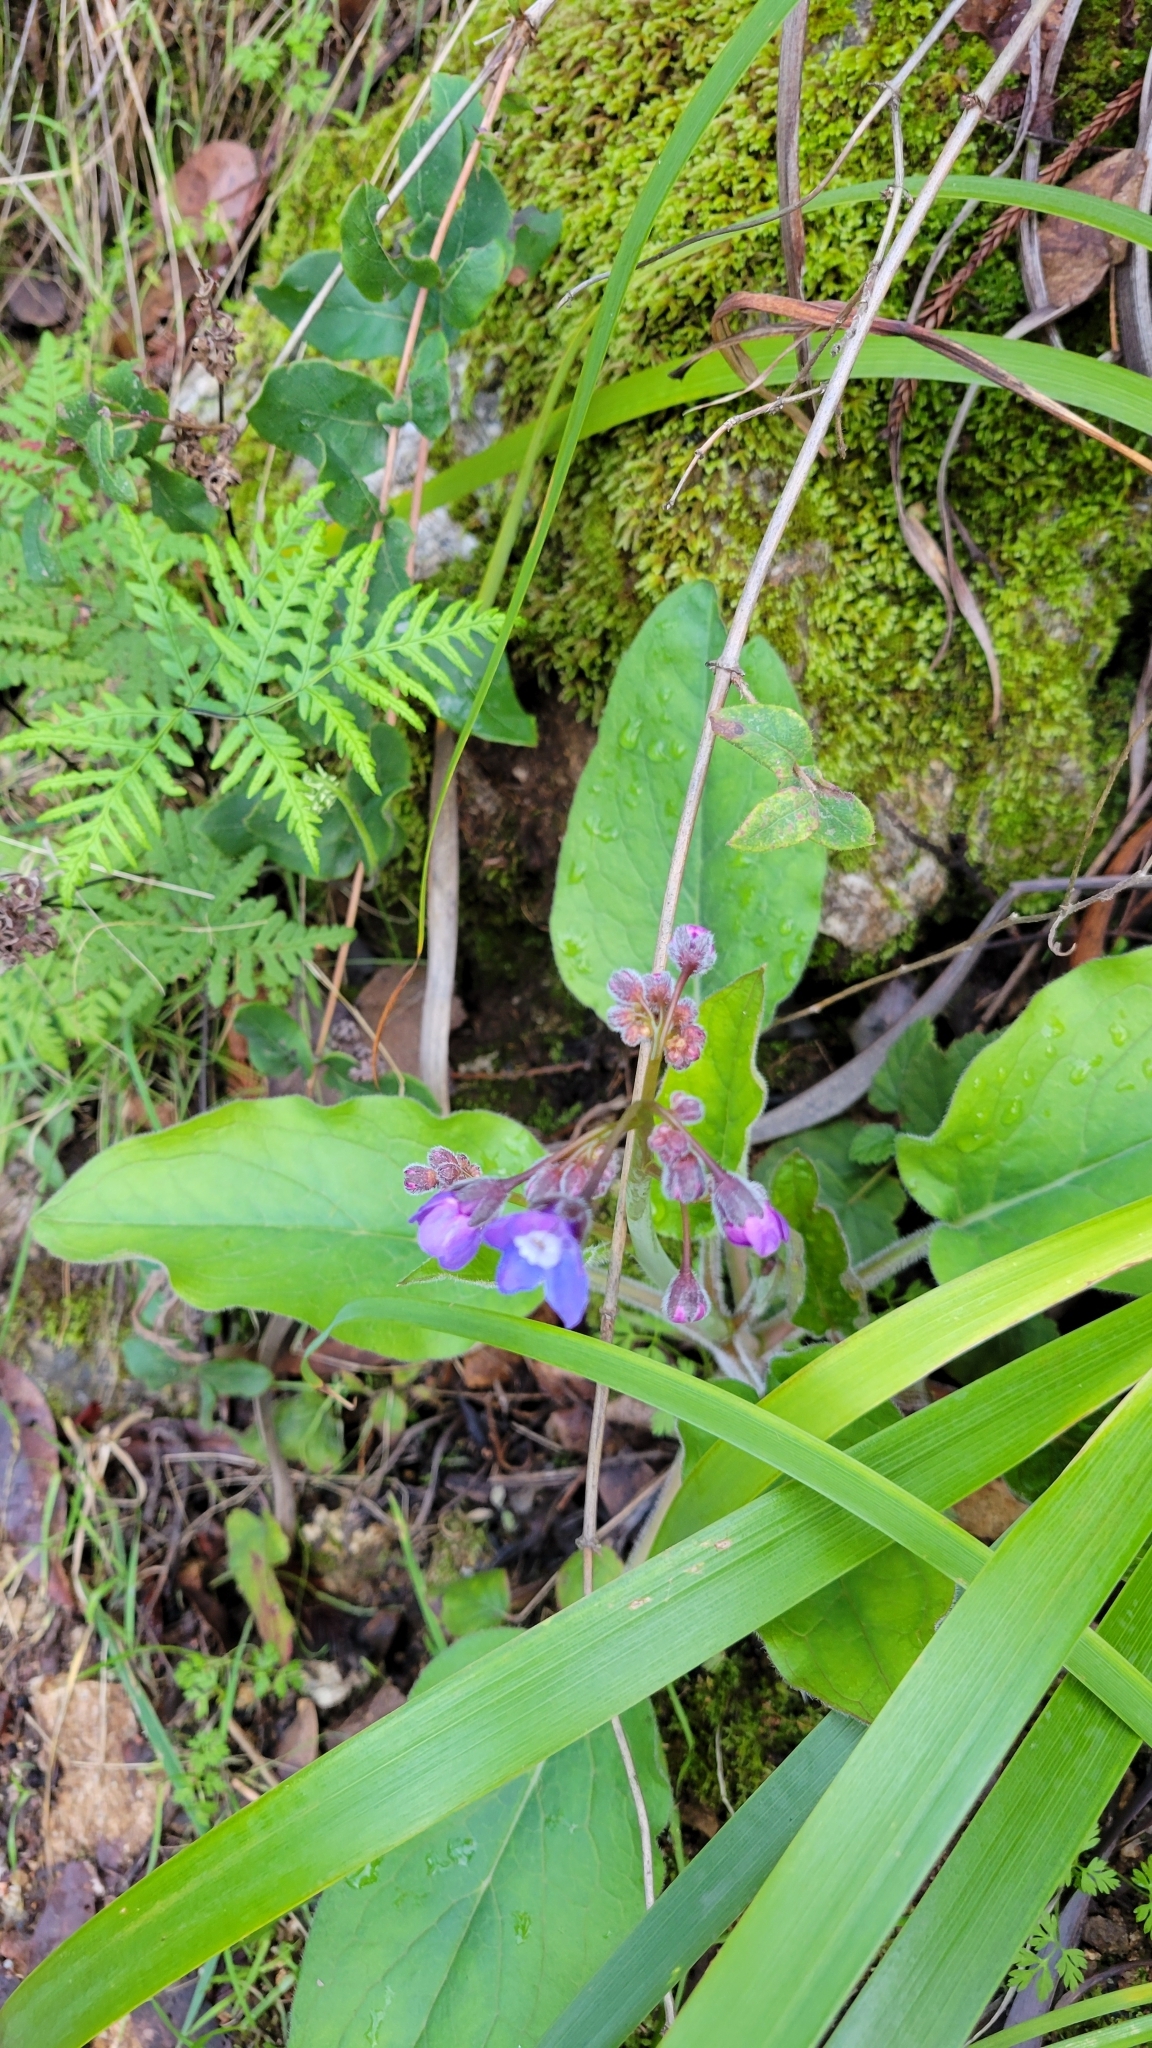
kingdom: Plantae
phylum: Tracheophyta
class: Magnoliopsida
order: Boraginales
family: Boraginaceae
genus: Adelinia
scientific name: Adelinia grande
